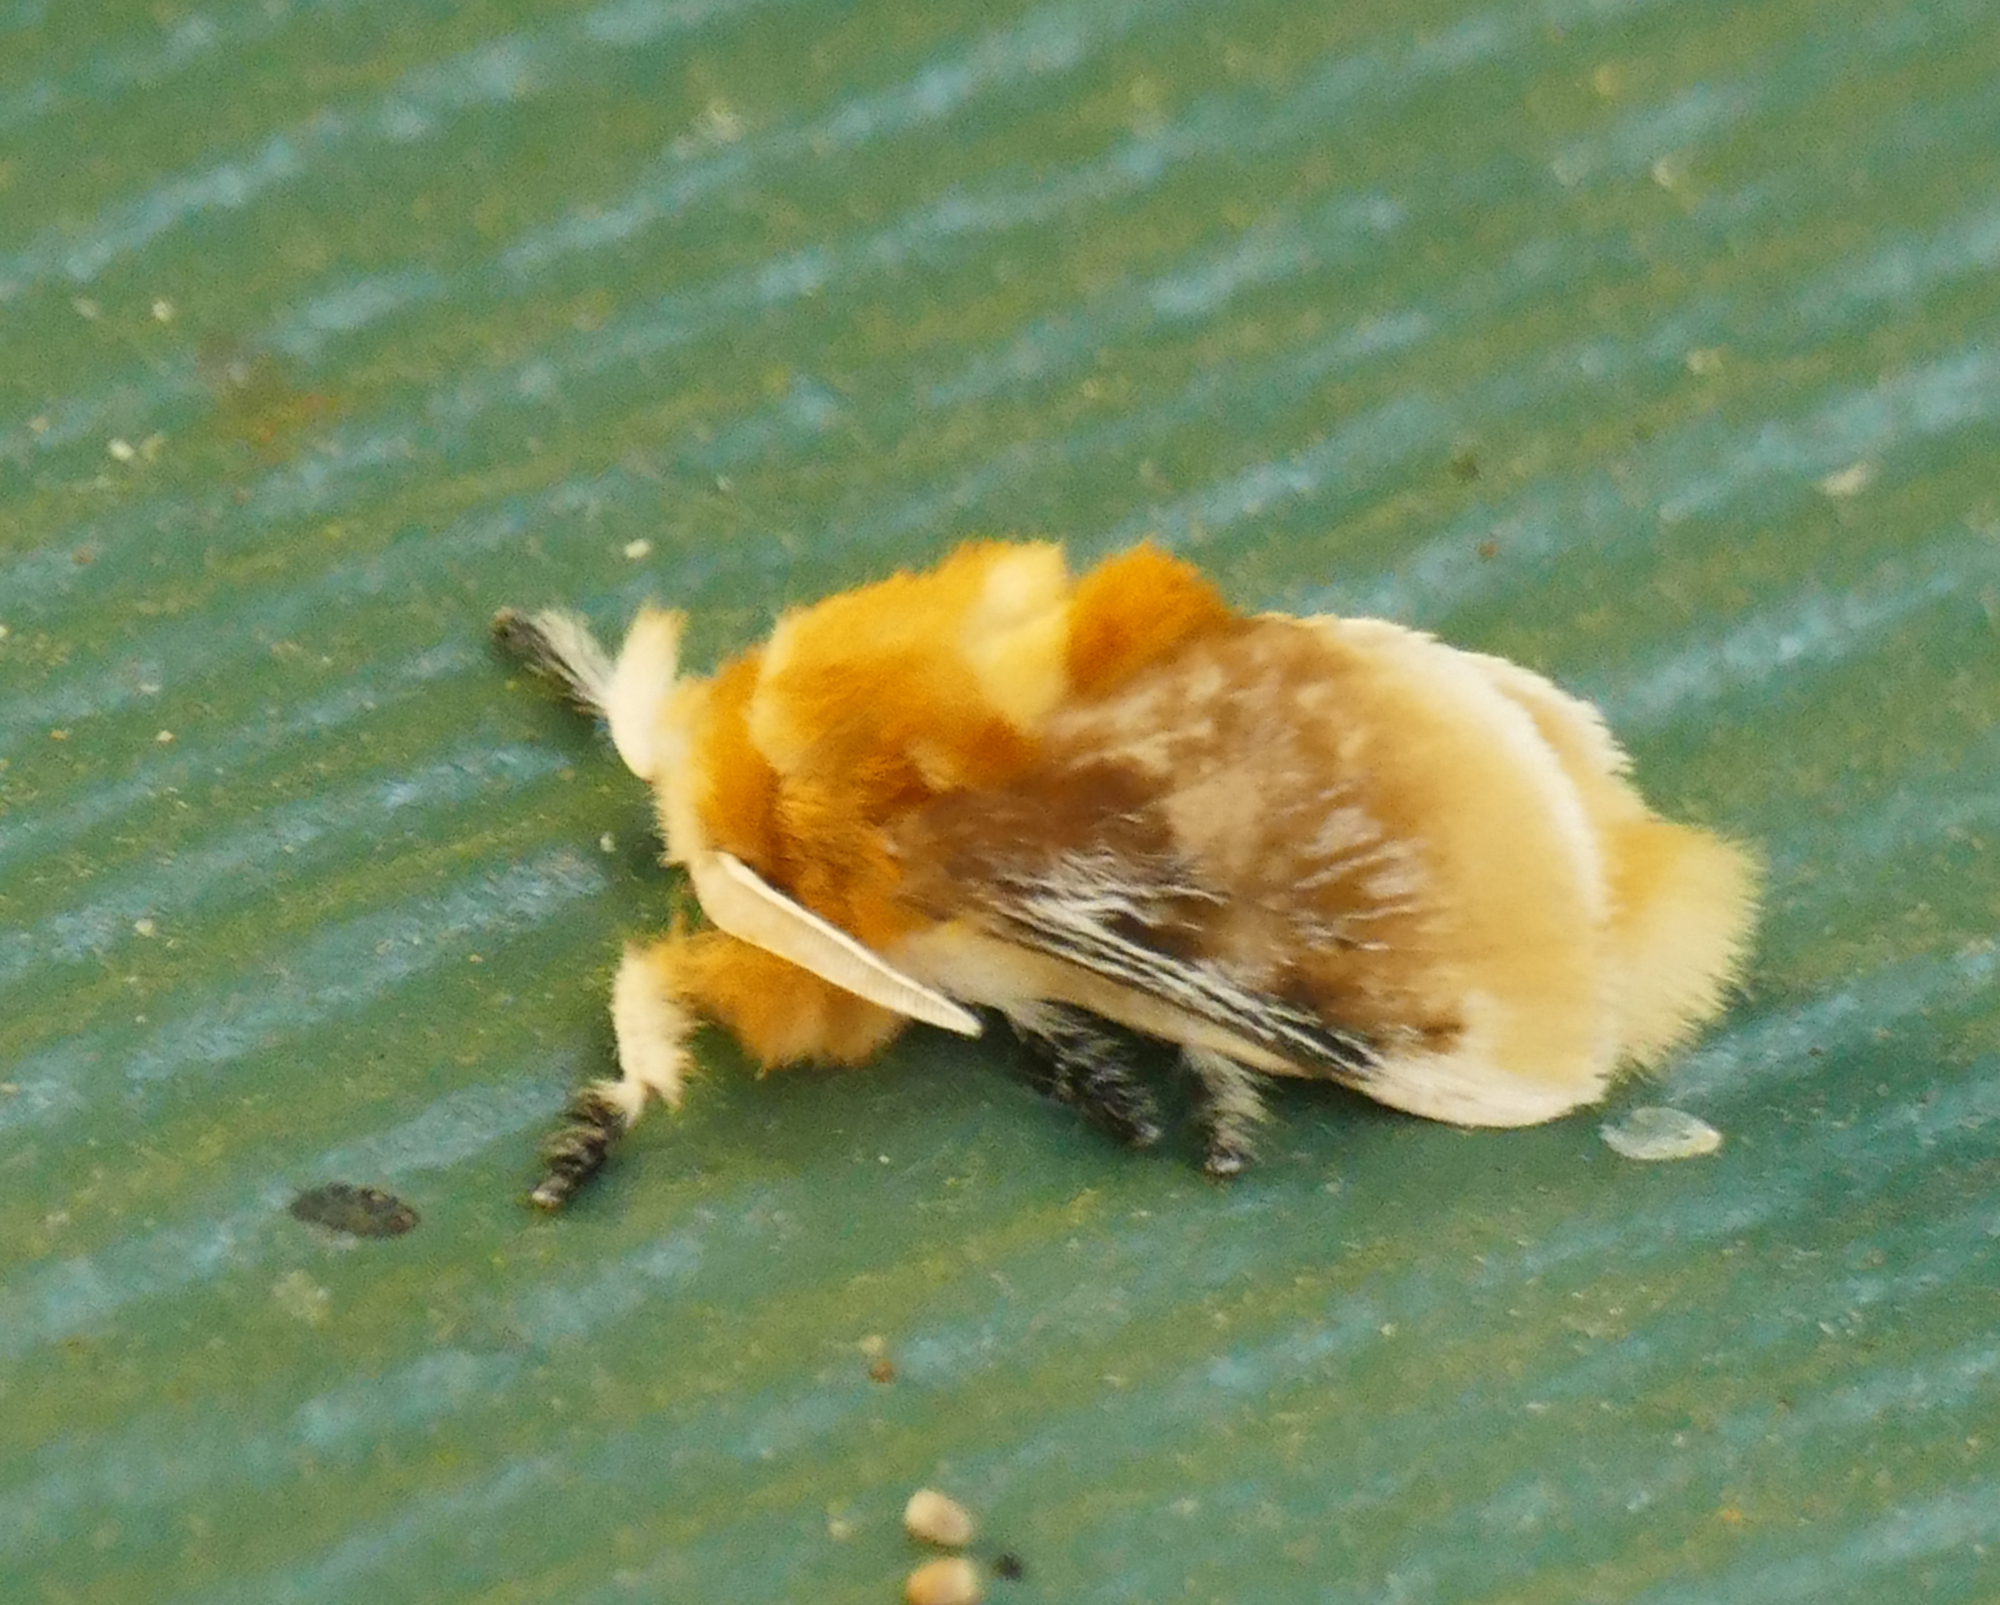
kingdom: Animalia
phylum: Arthropoda
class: Insecta
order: Lepidoptera
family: Megalopygidae
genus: Megalopyge
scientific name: Megalopyge opercularis
